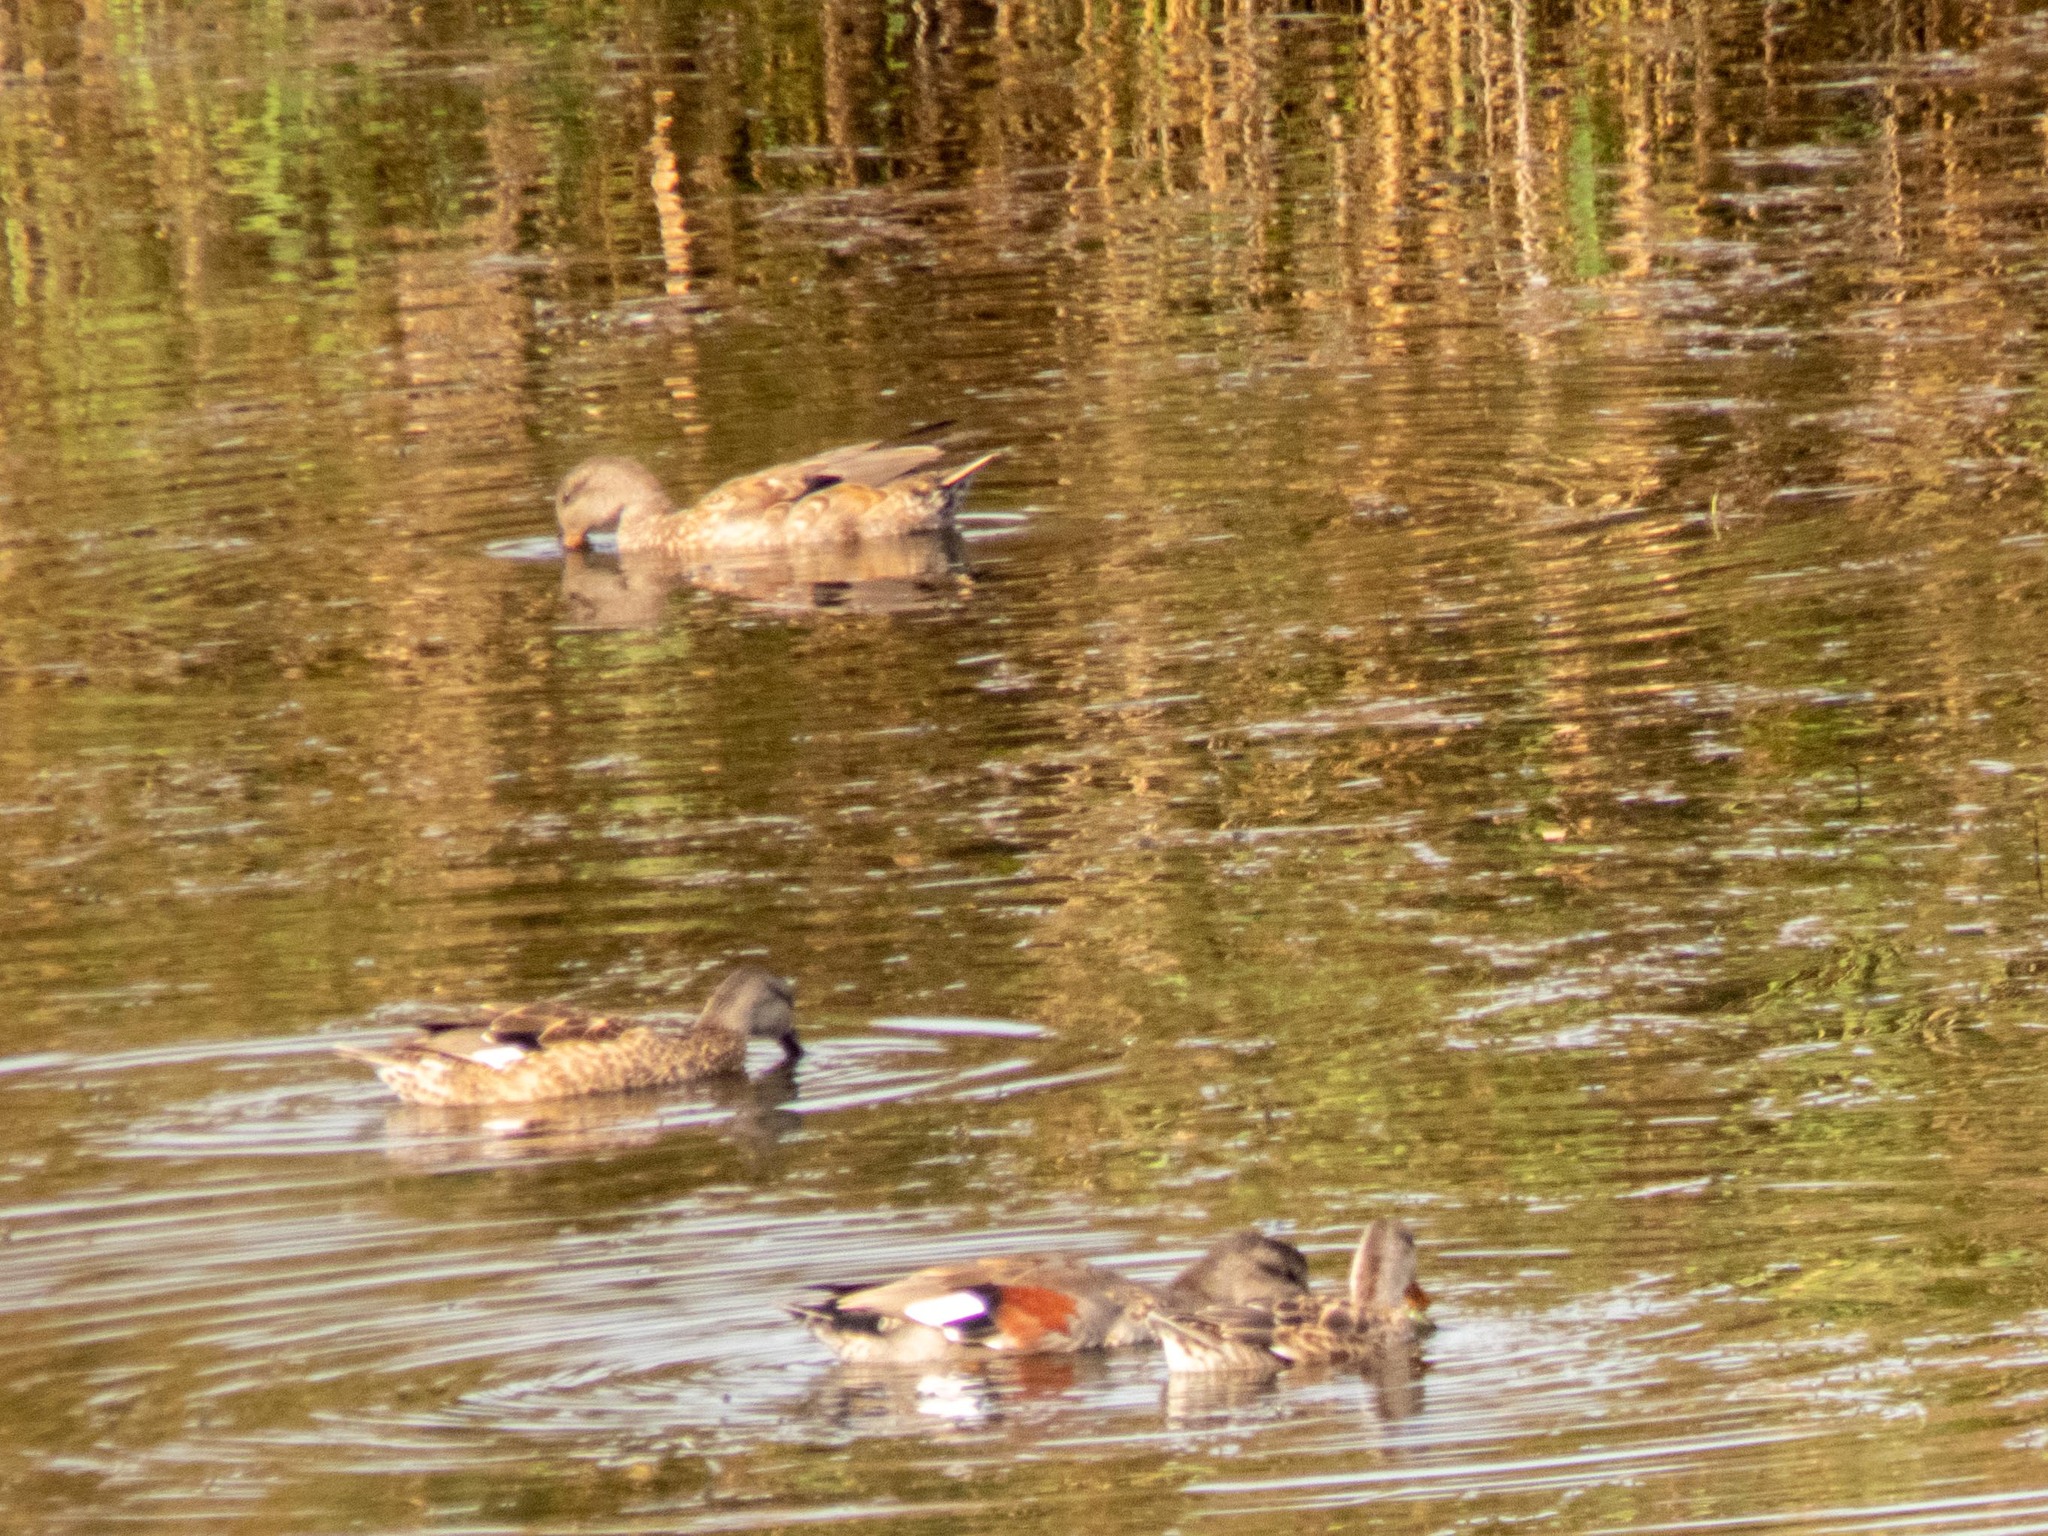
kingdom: Animalia
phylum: Chordata
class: Aves
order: Anseriformes
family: Anatidae
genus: Mareca
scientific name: Mareca strepera
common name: Gadwall
